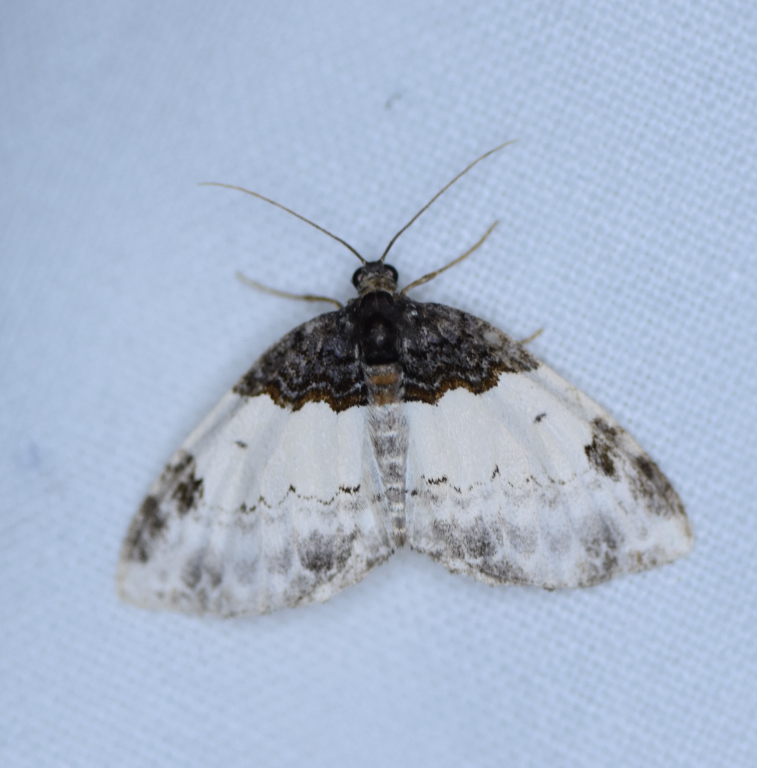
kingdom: Animalia
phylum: Arthropoda
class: Insecta
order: Lepidoptera
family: Geometridae
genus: Mesoleuca
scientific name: Mesoleuca ruficillata
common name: White-ribboned carpet moth
